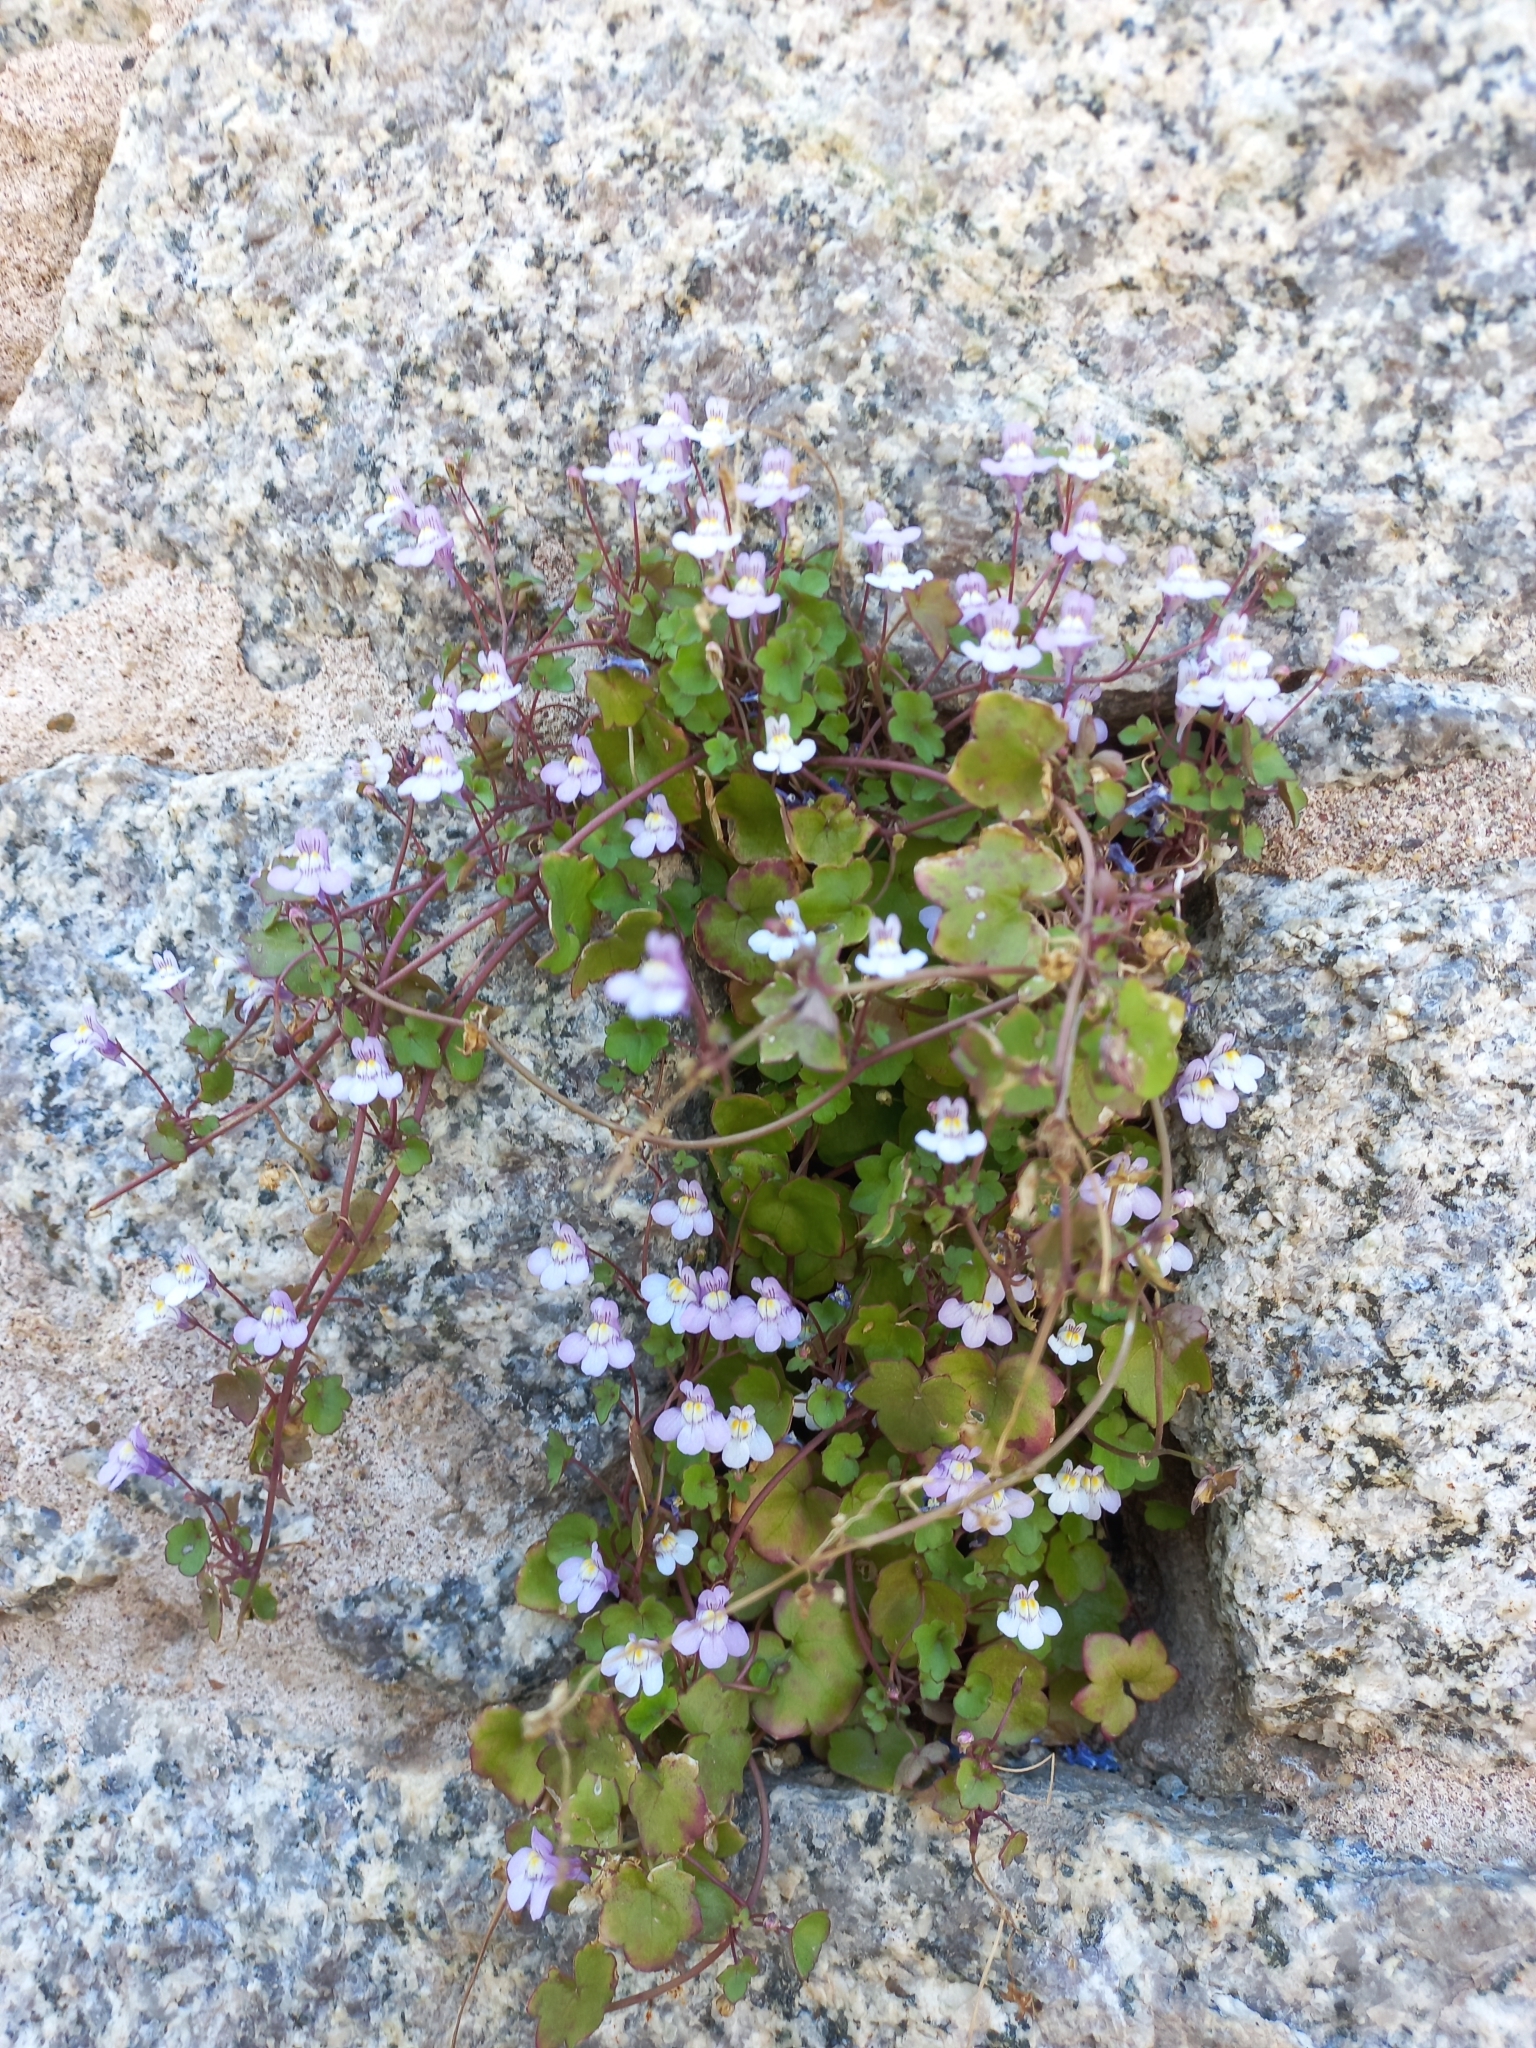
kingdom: Plantae
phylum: Tracheophyta
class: Magnoliopsida
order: Lamiales
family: Plantaginaceae
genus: Cymbalaria
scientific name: Cymbalaria muralis
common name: Ivy-leaved toadflax
